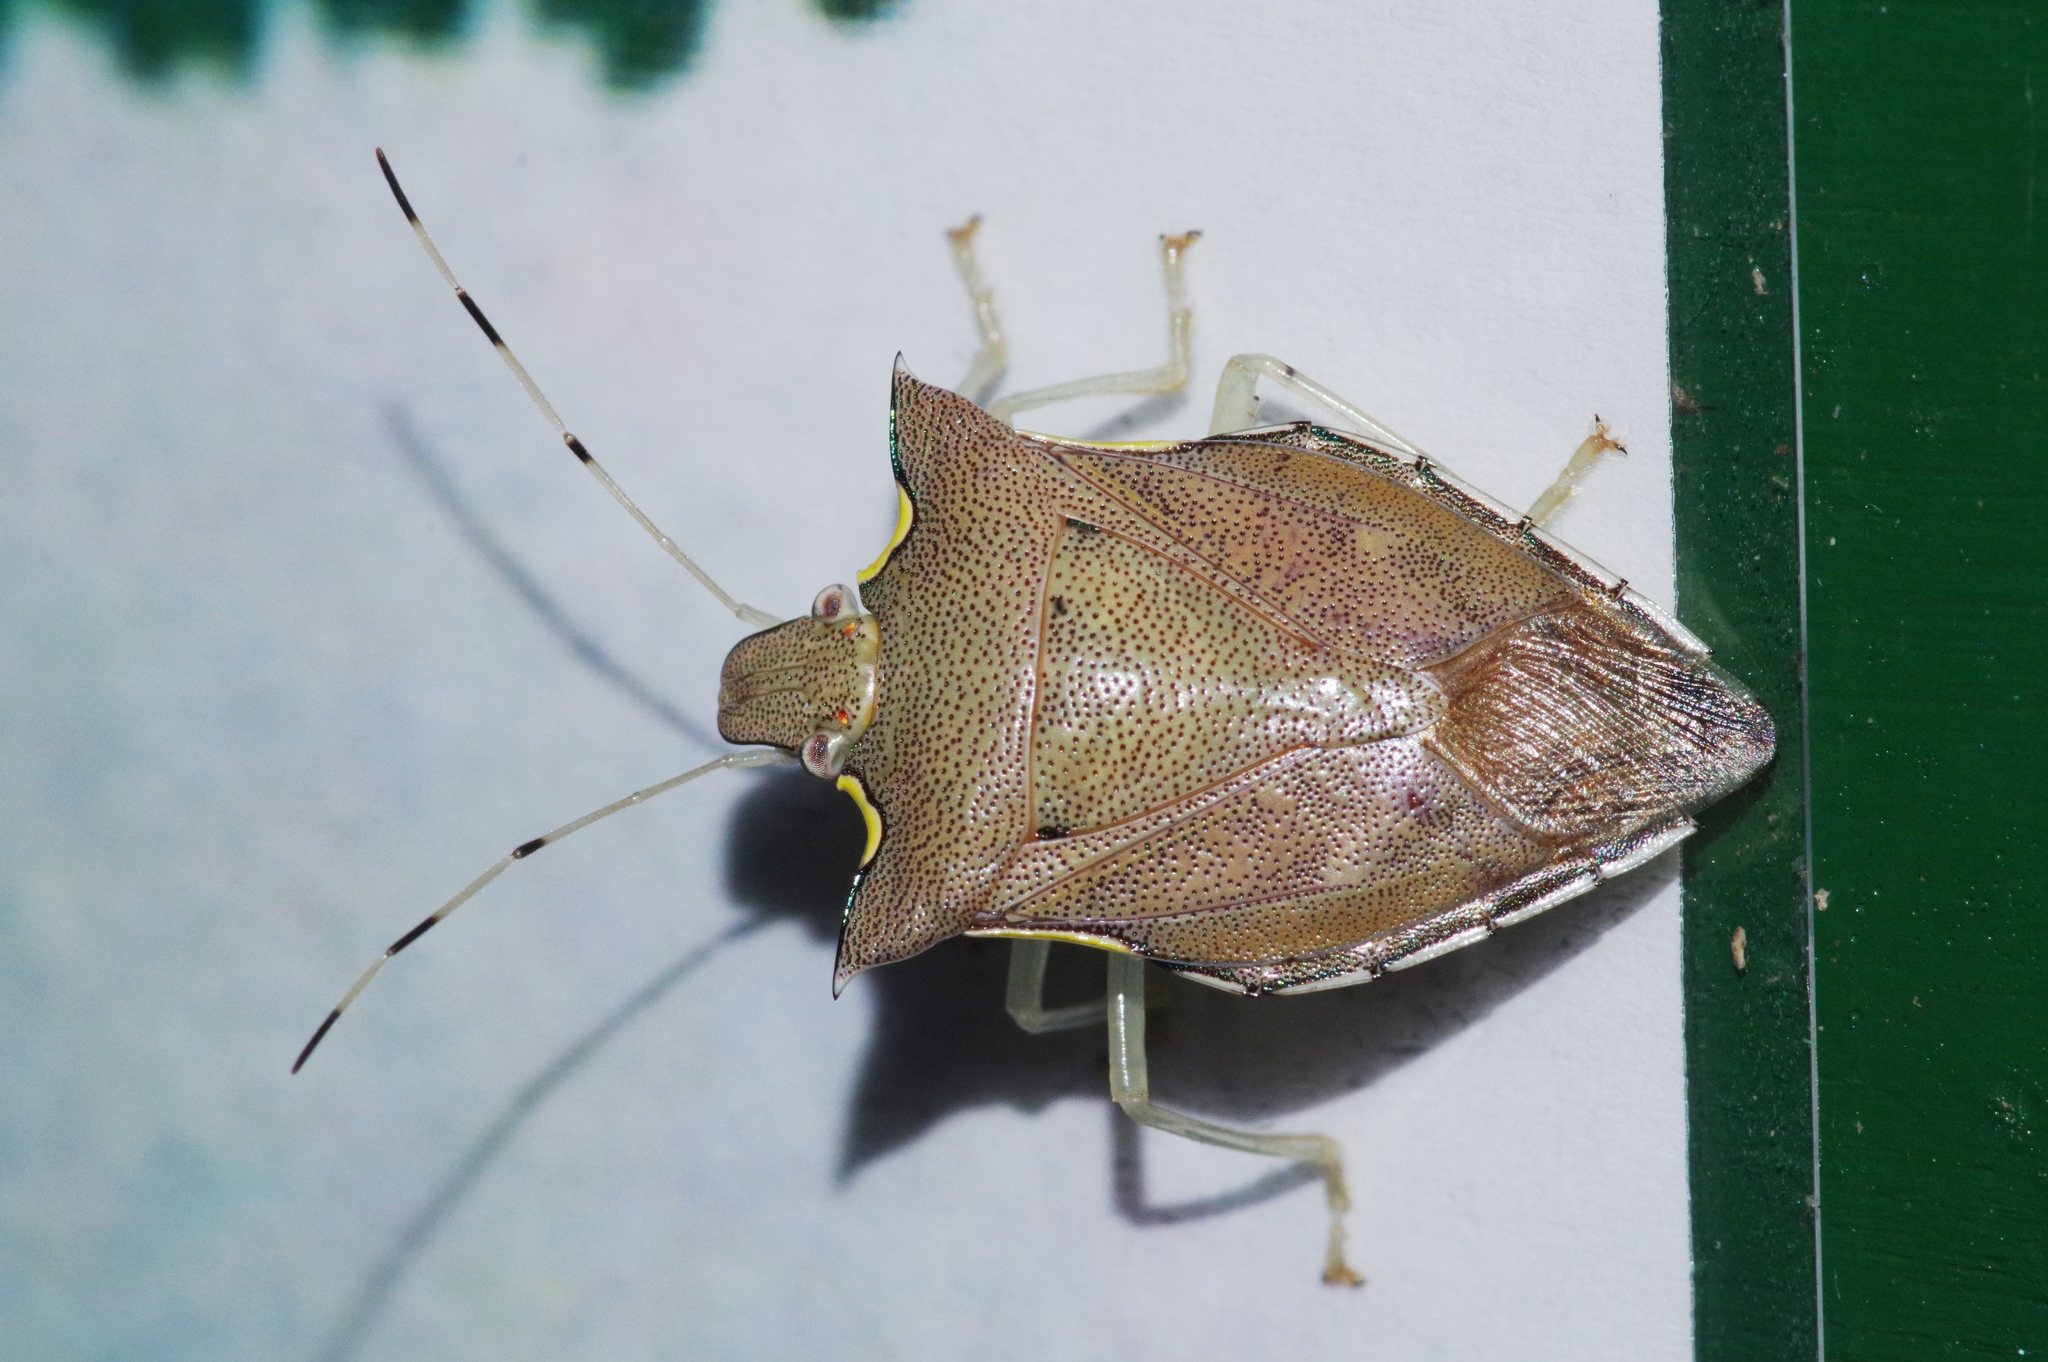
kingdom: Animalia
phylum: Arthropoda
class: Insecta
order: Hemiptera
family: Pentatomidae
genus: Amblycara
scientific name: Amblycara gladiatoria
